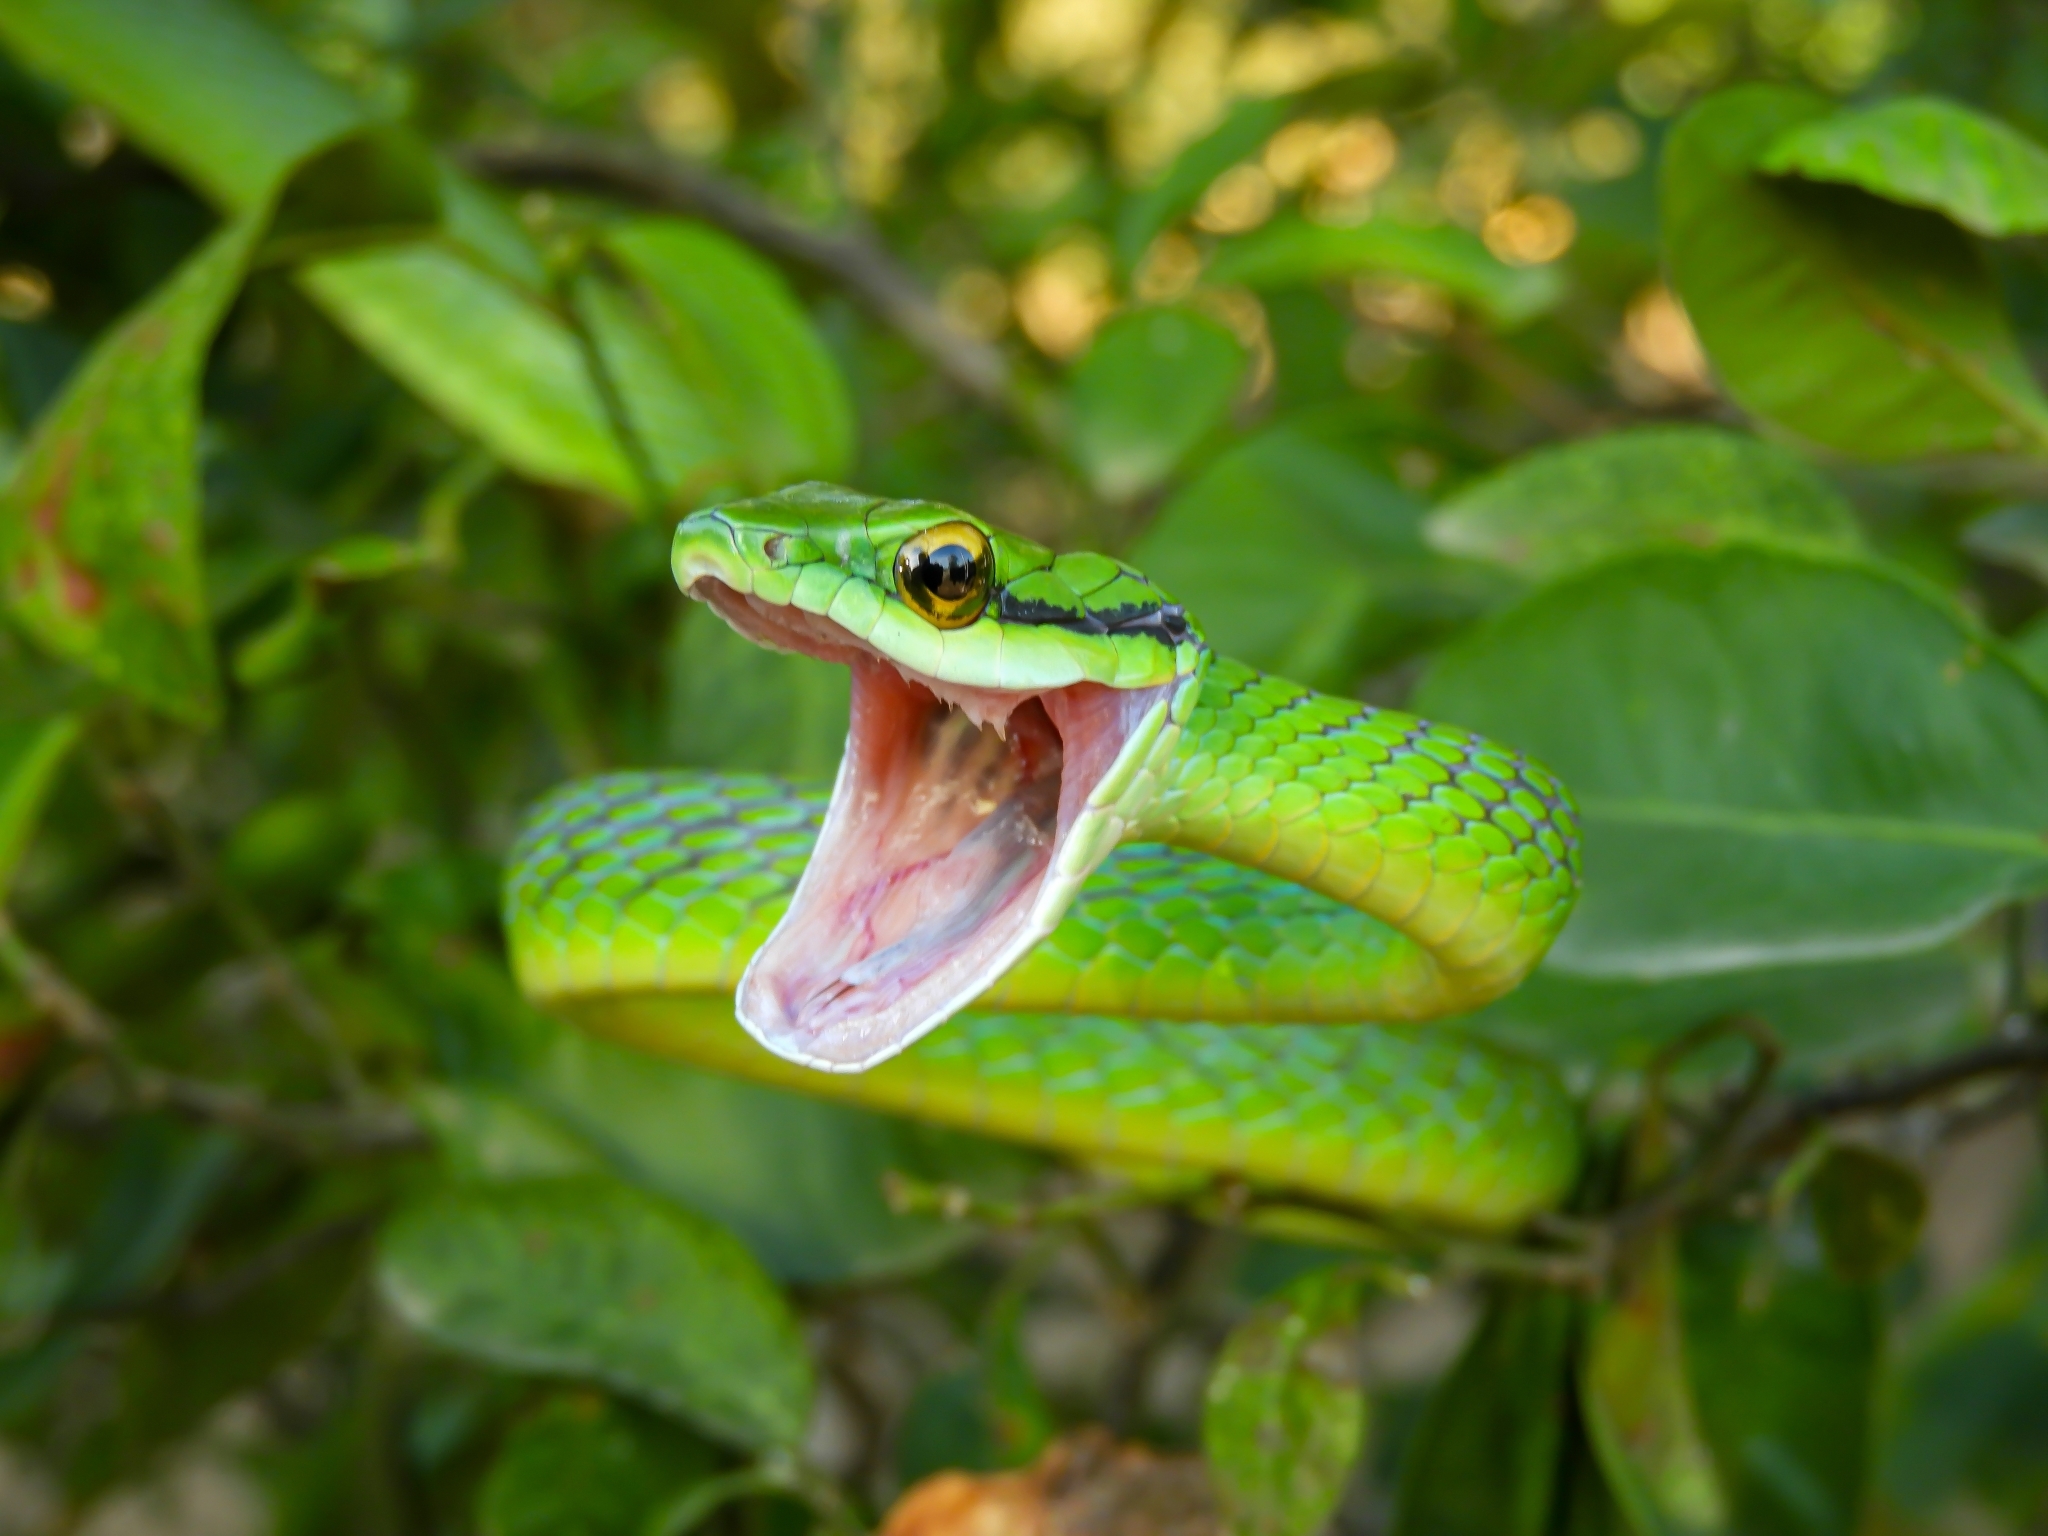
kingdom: Animalia
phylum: Chordata
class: Squamata
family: Colubridae
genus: Leptophis
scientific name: Leptophis ahaetulla
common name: Parrot snake
